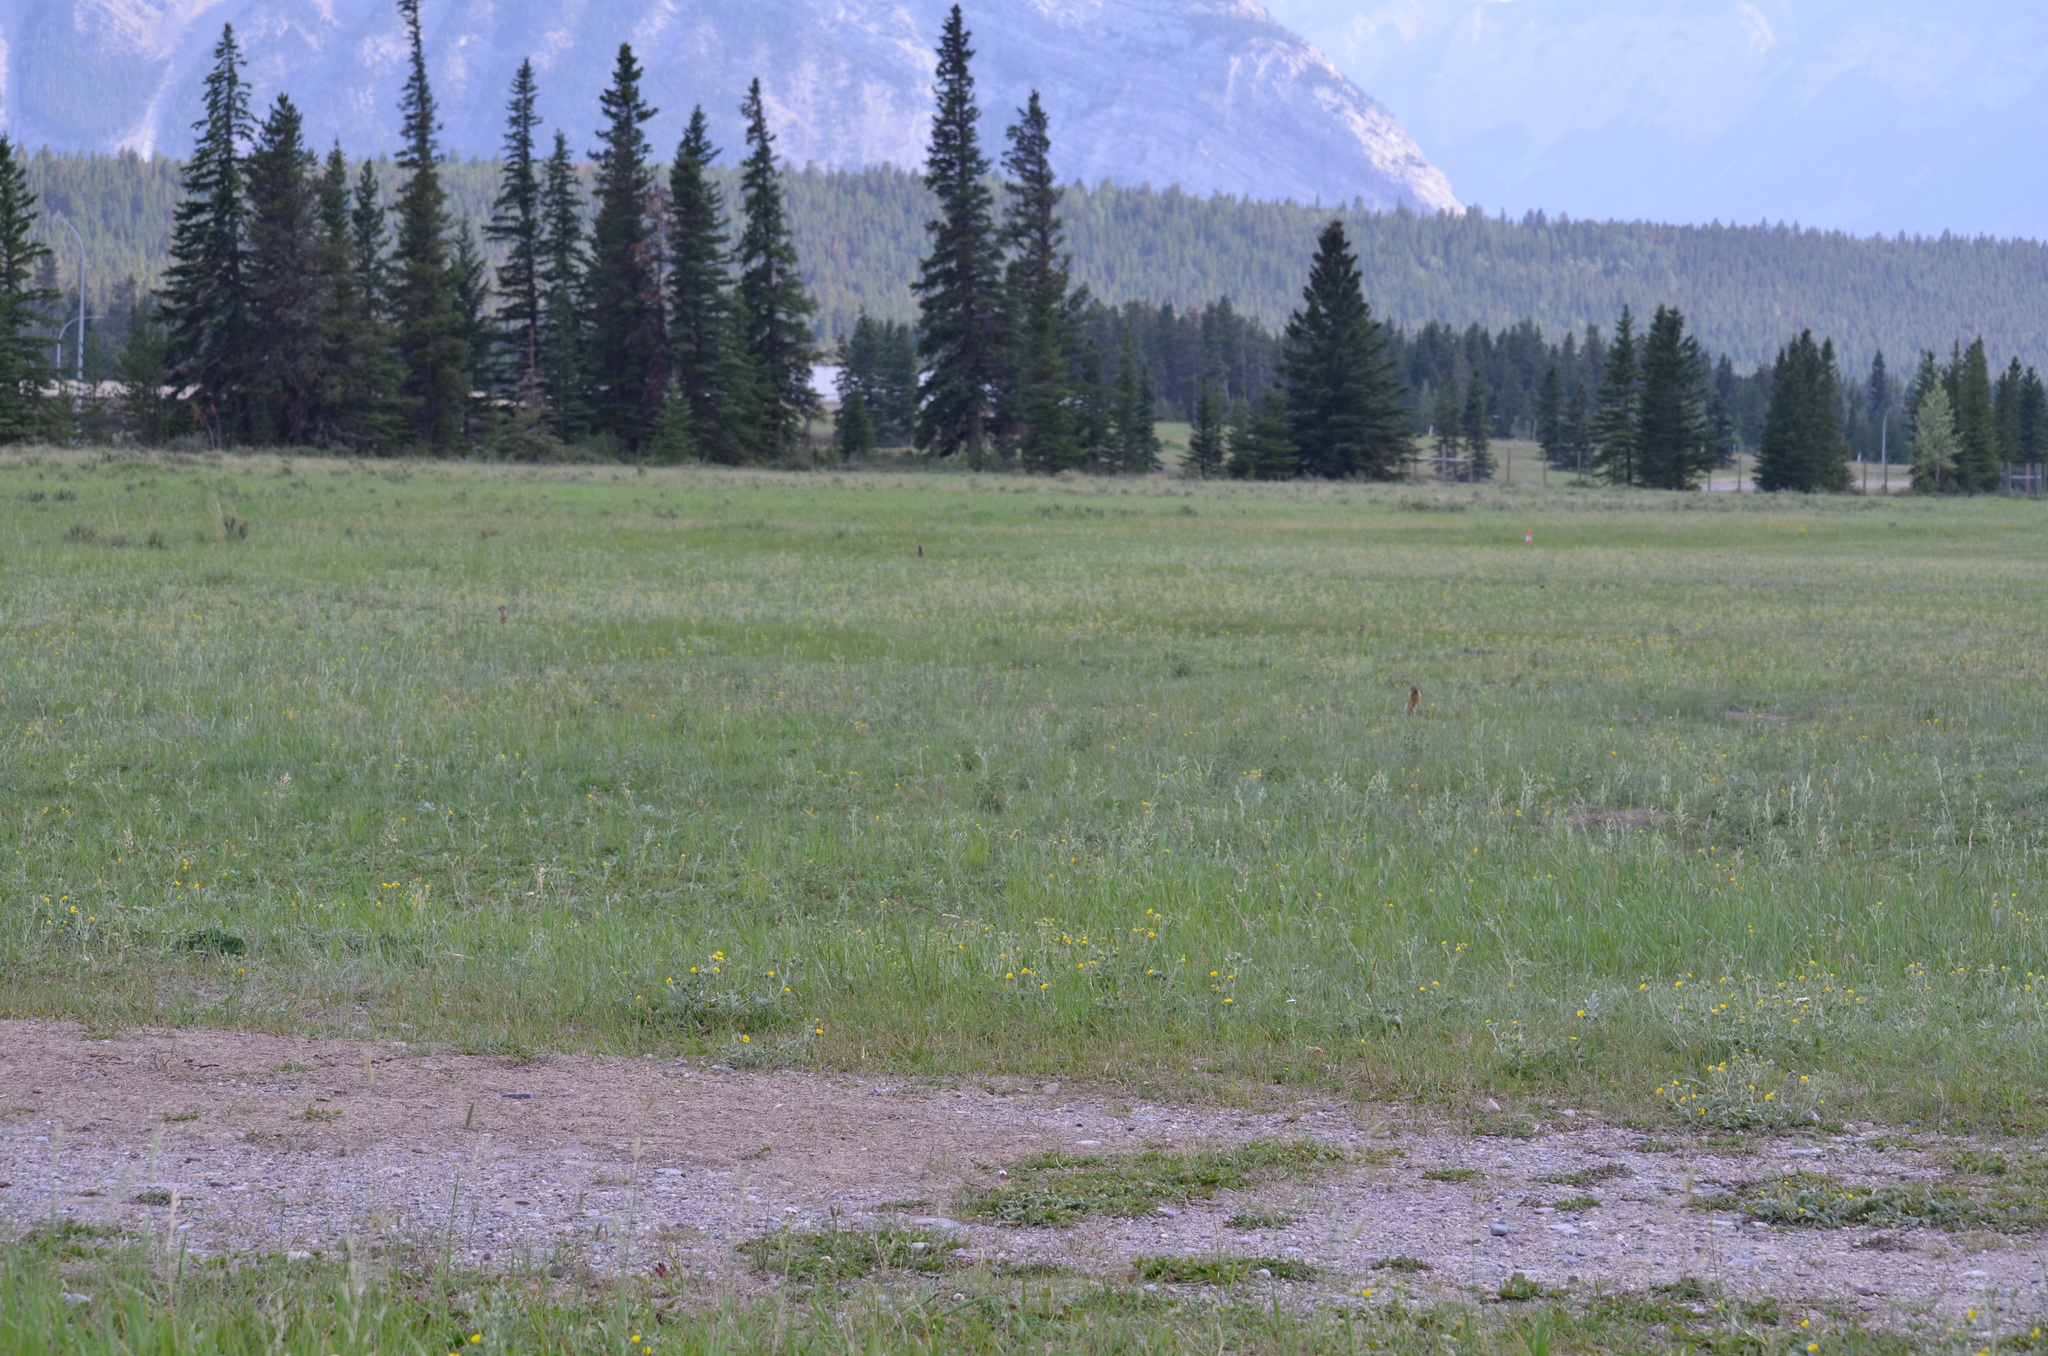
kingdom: Animalia
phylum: Chordata
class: Mammalia
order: Rodentia
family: Sciuridae
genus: Urocitellus
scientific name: Urocitellus columbianus
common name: Columbian ground squirrel
